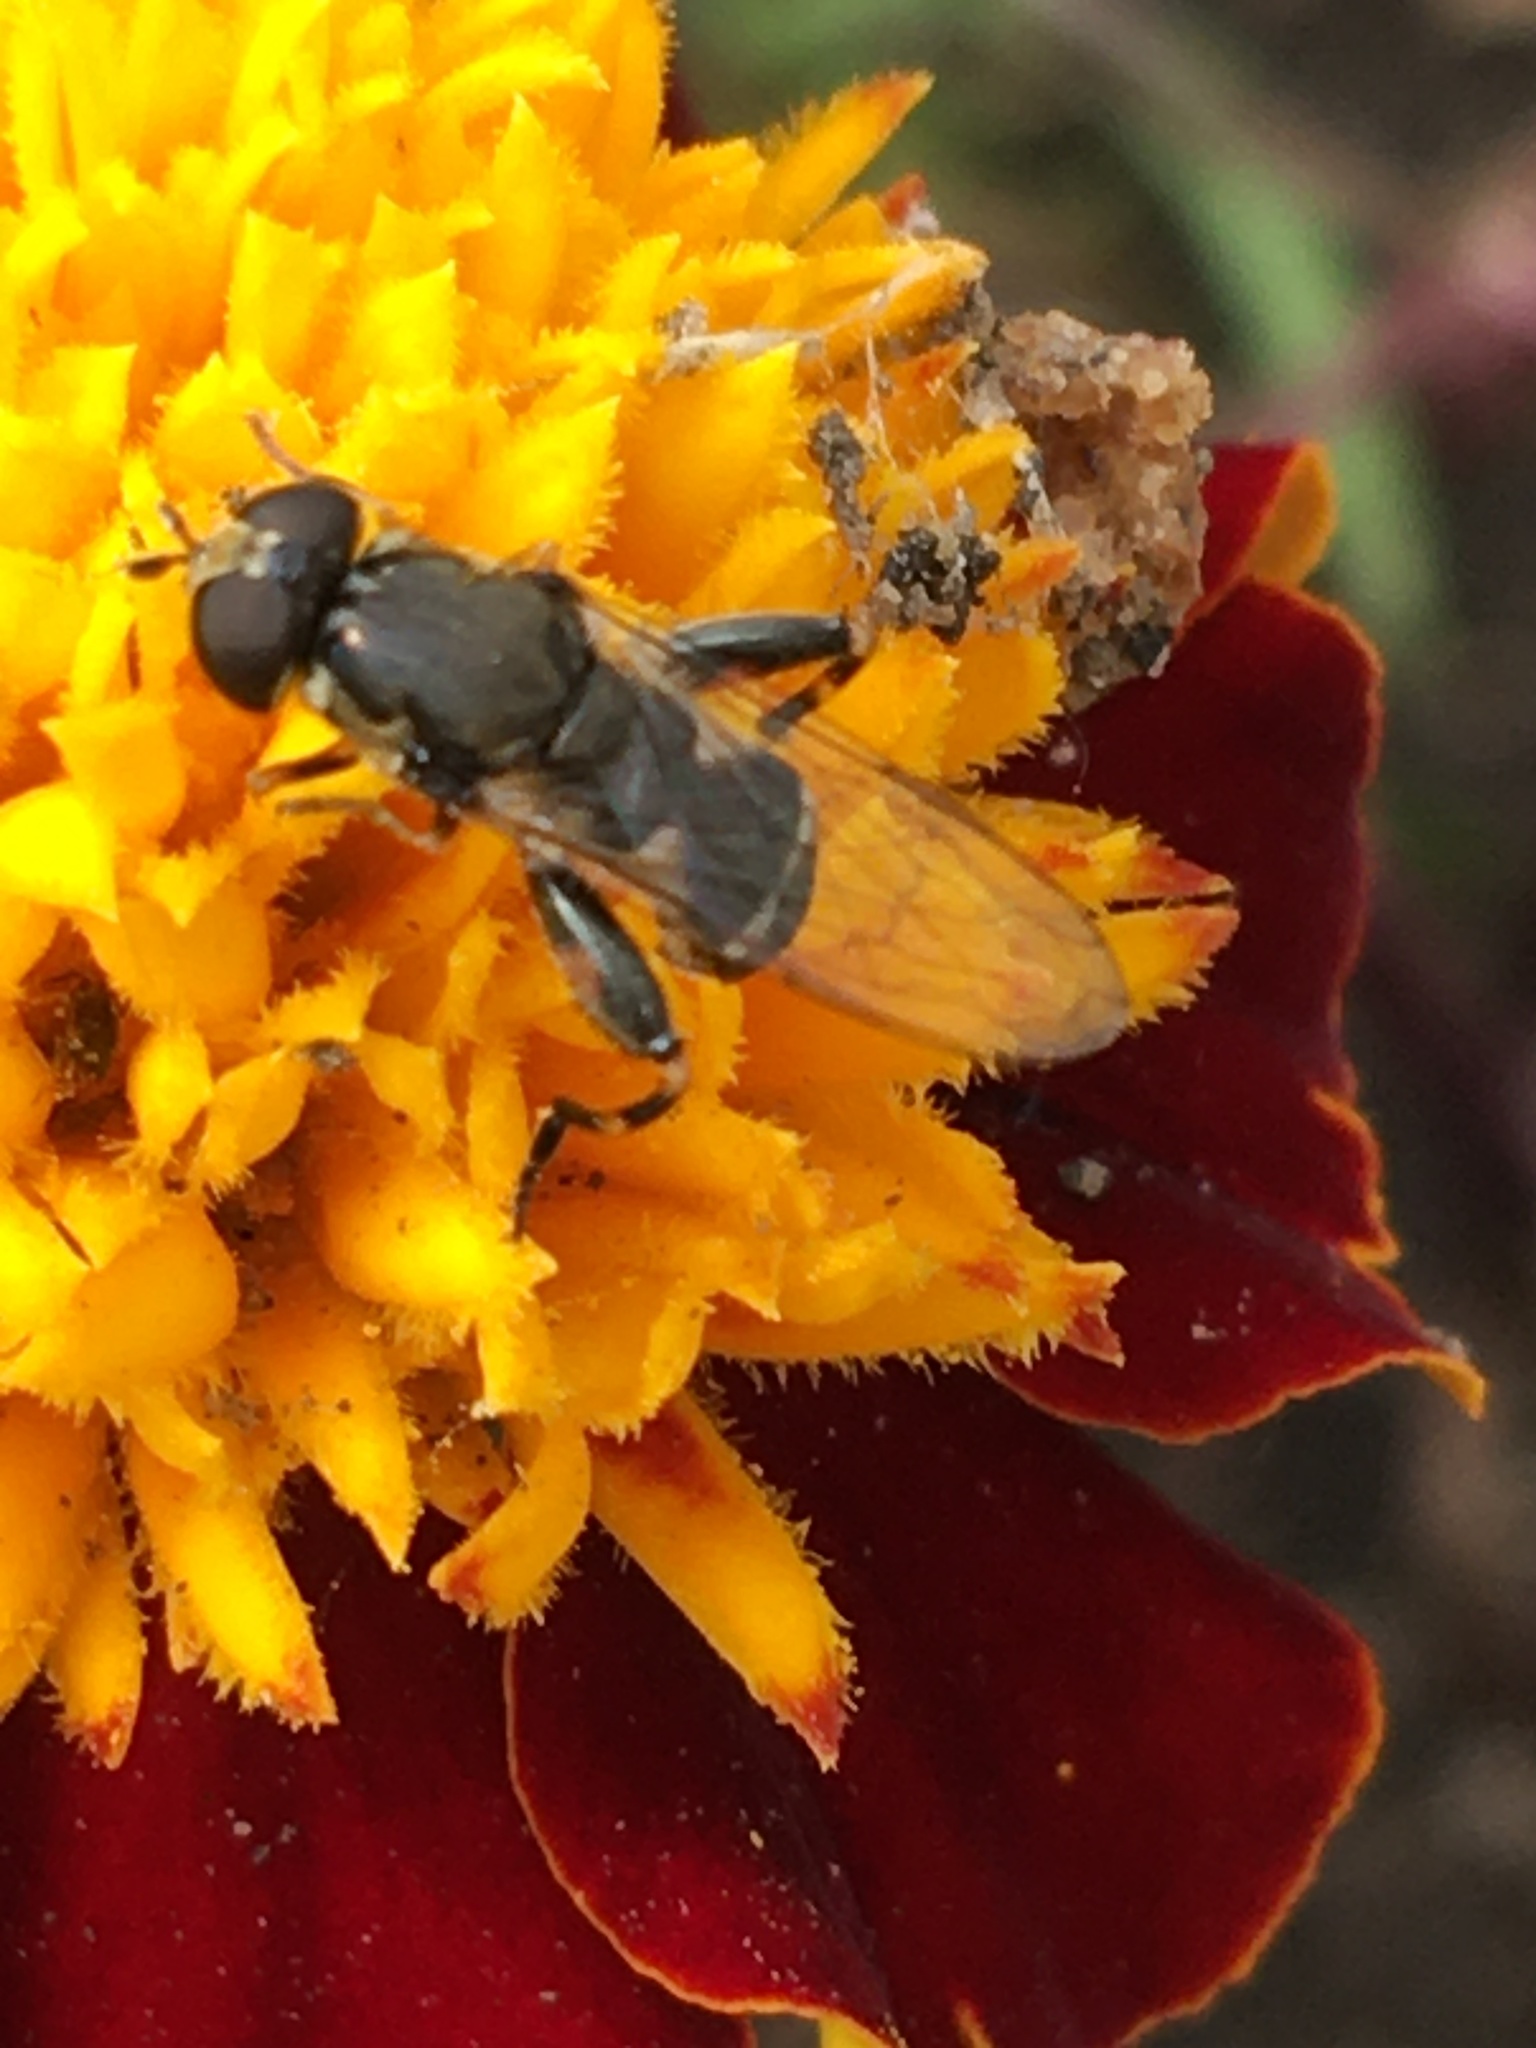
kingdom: Animalia
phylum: Arthropoda
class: Insecta
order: Diptera
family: Syrphidae
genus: Syritta
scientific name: Syritta pipiens
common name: Hover fly
